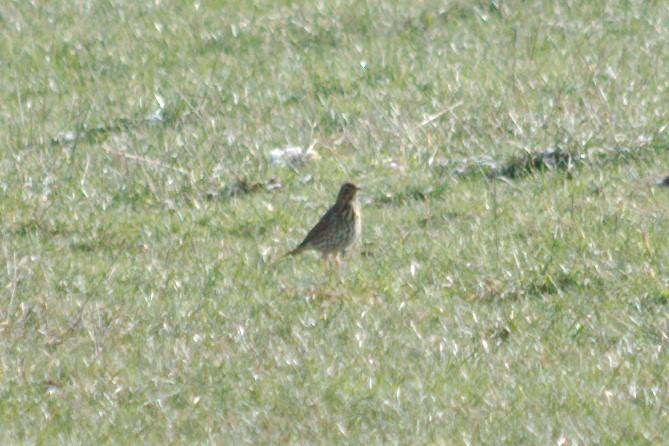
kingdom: Animalia
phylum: Chordata
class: Aves
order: Passeriformes
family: Turdidae
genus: Turdus
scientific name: Turdus philomelos
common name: Song thrush
